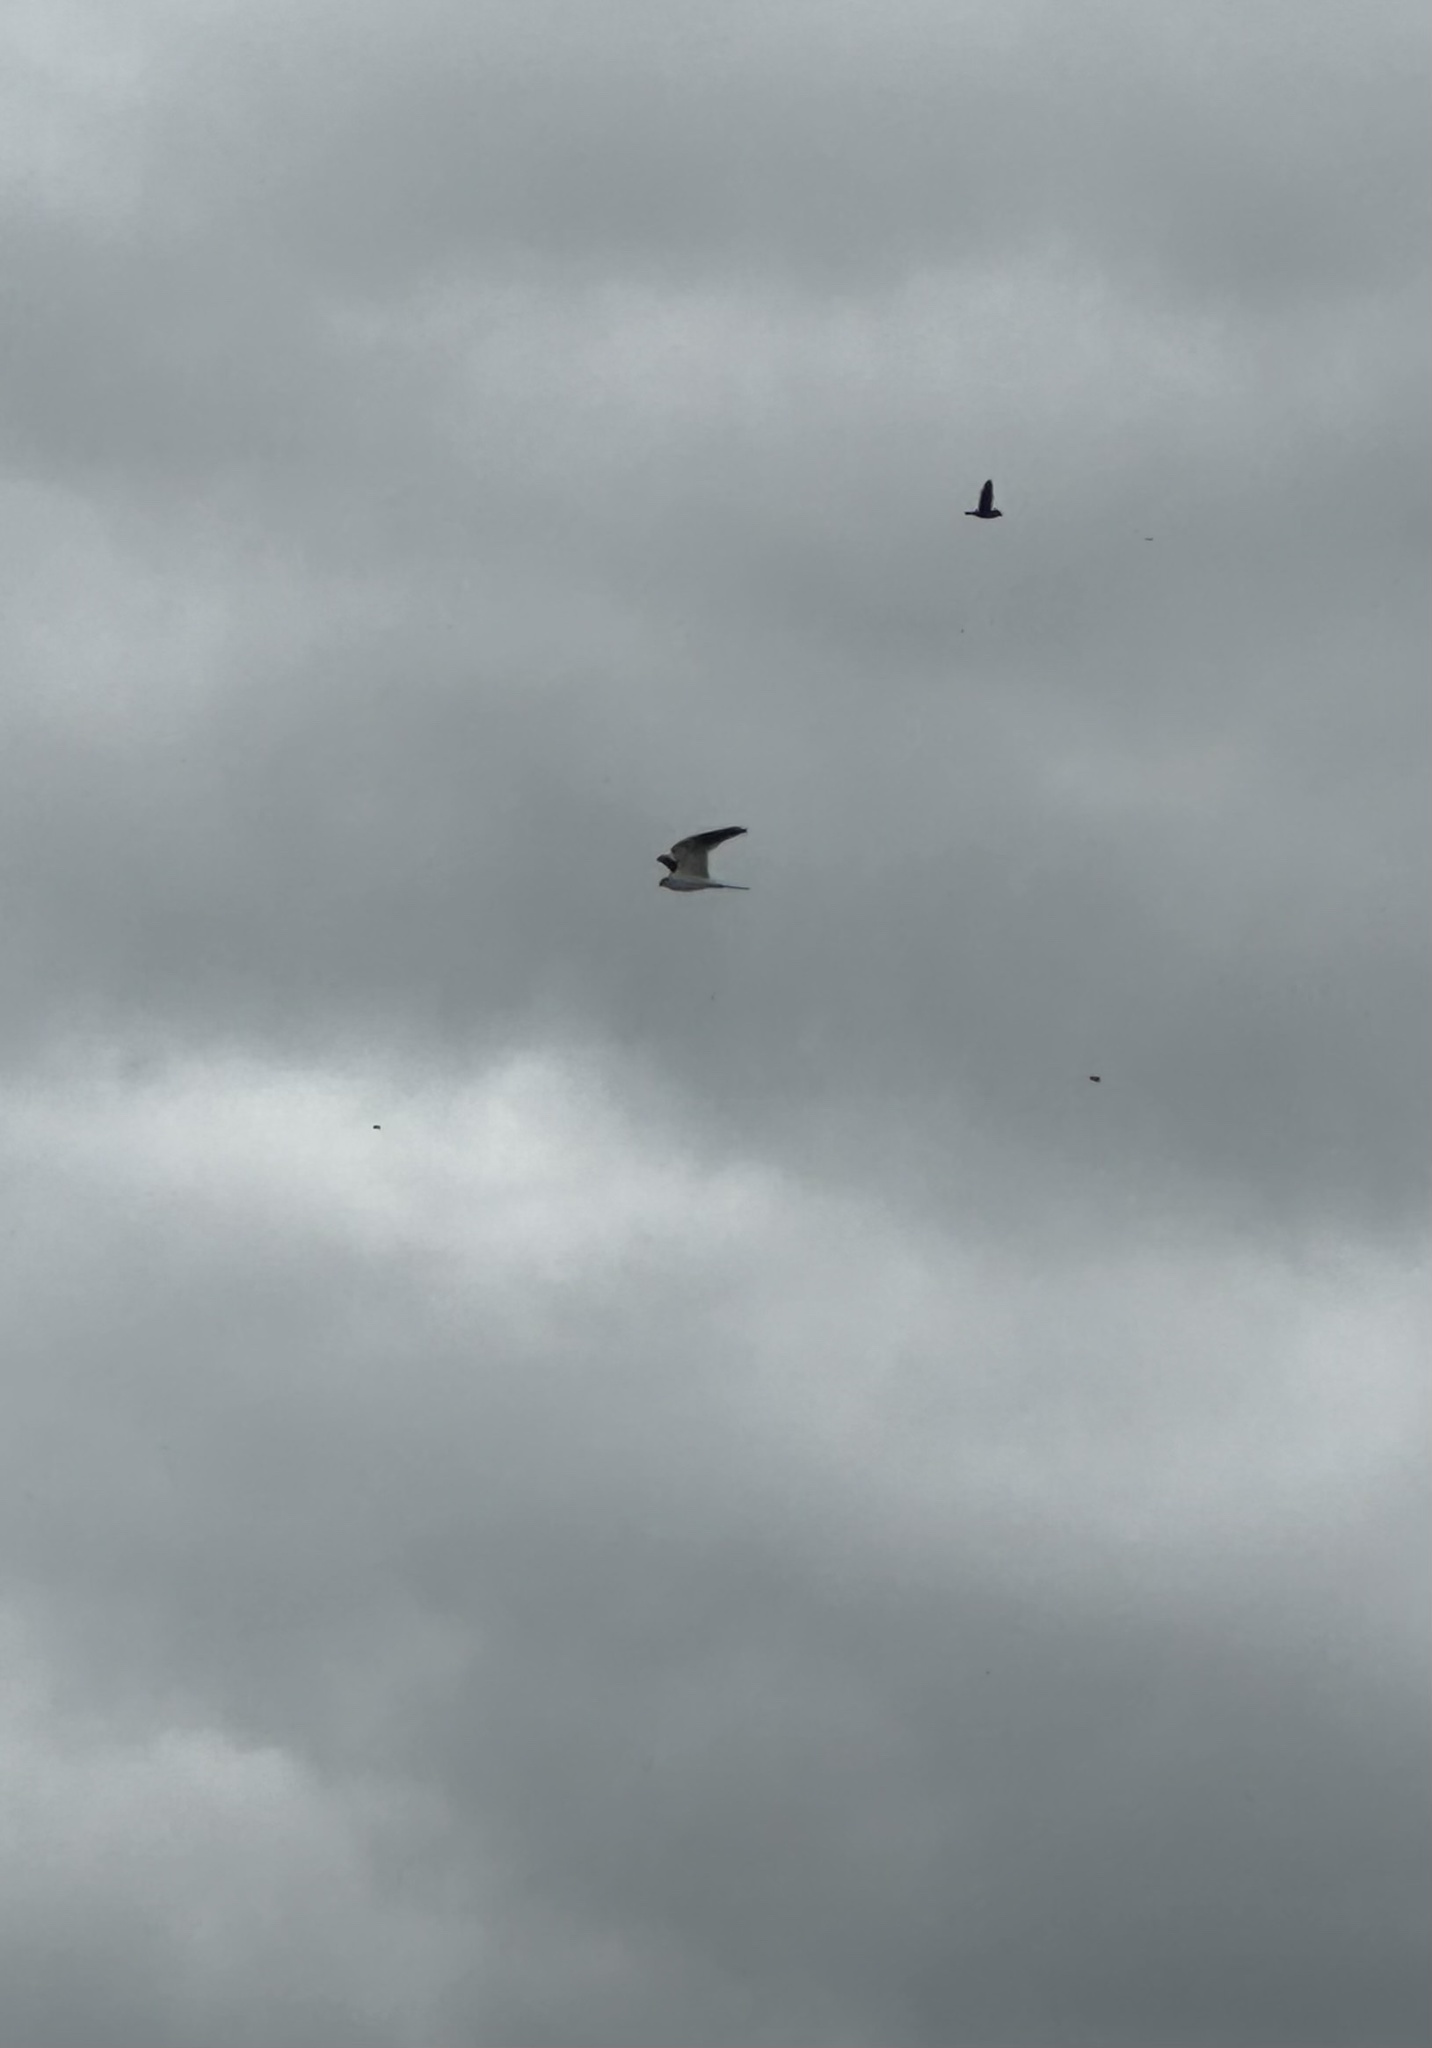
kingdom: Animalia
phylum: Chordata
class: Aves
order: Accipitriformes
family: Accipitridae
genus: Elanus
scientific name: Elanus leucurus
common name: White-tailed kite
